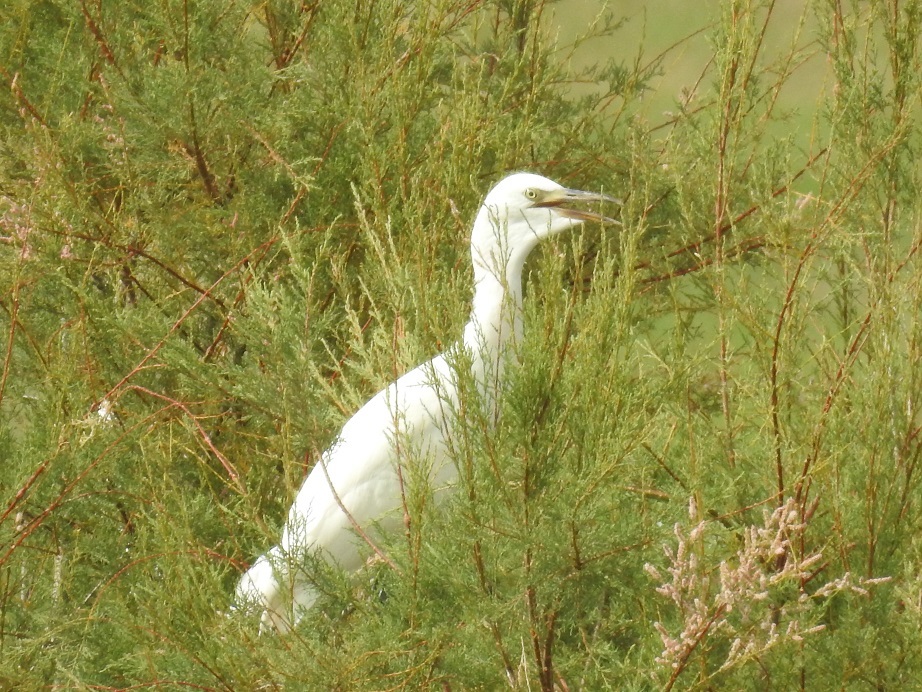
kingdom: Animalia
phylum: Chordata
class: Aves
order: Pelecaniformes
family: Ardeidae
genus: Bubulcus
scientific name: Bubulcus ibis
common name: Cattle egret
